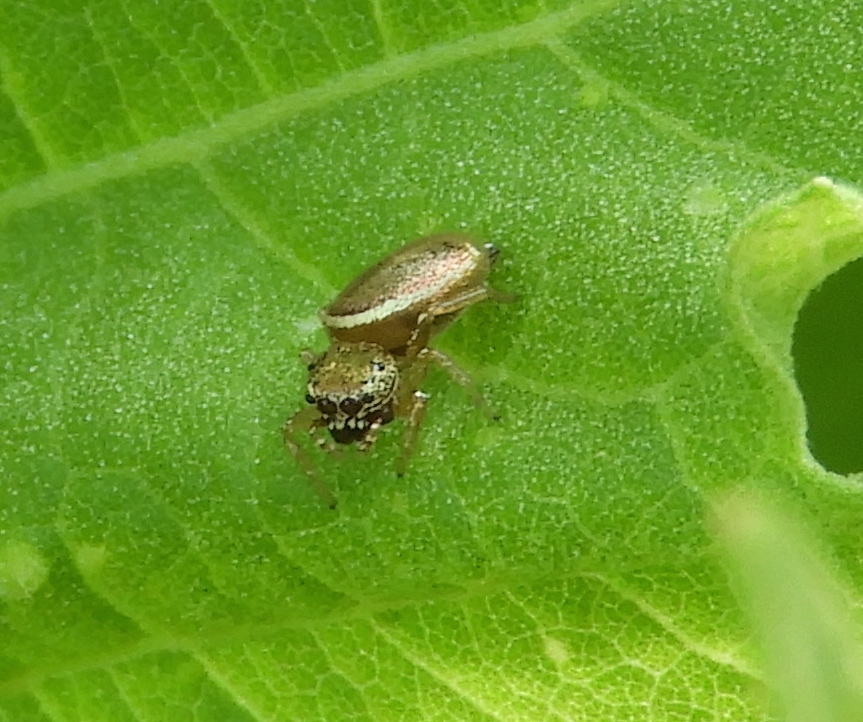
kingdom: Animalia
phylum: Arthropoda
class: Arachnida
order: Araneae
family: Salticidae
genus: Sassacus
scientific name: Sassacus vitis
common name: Jumping spiders
